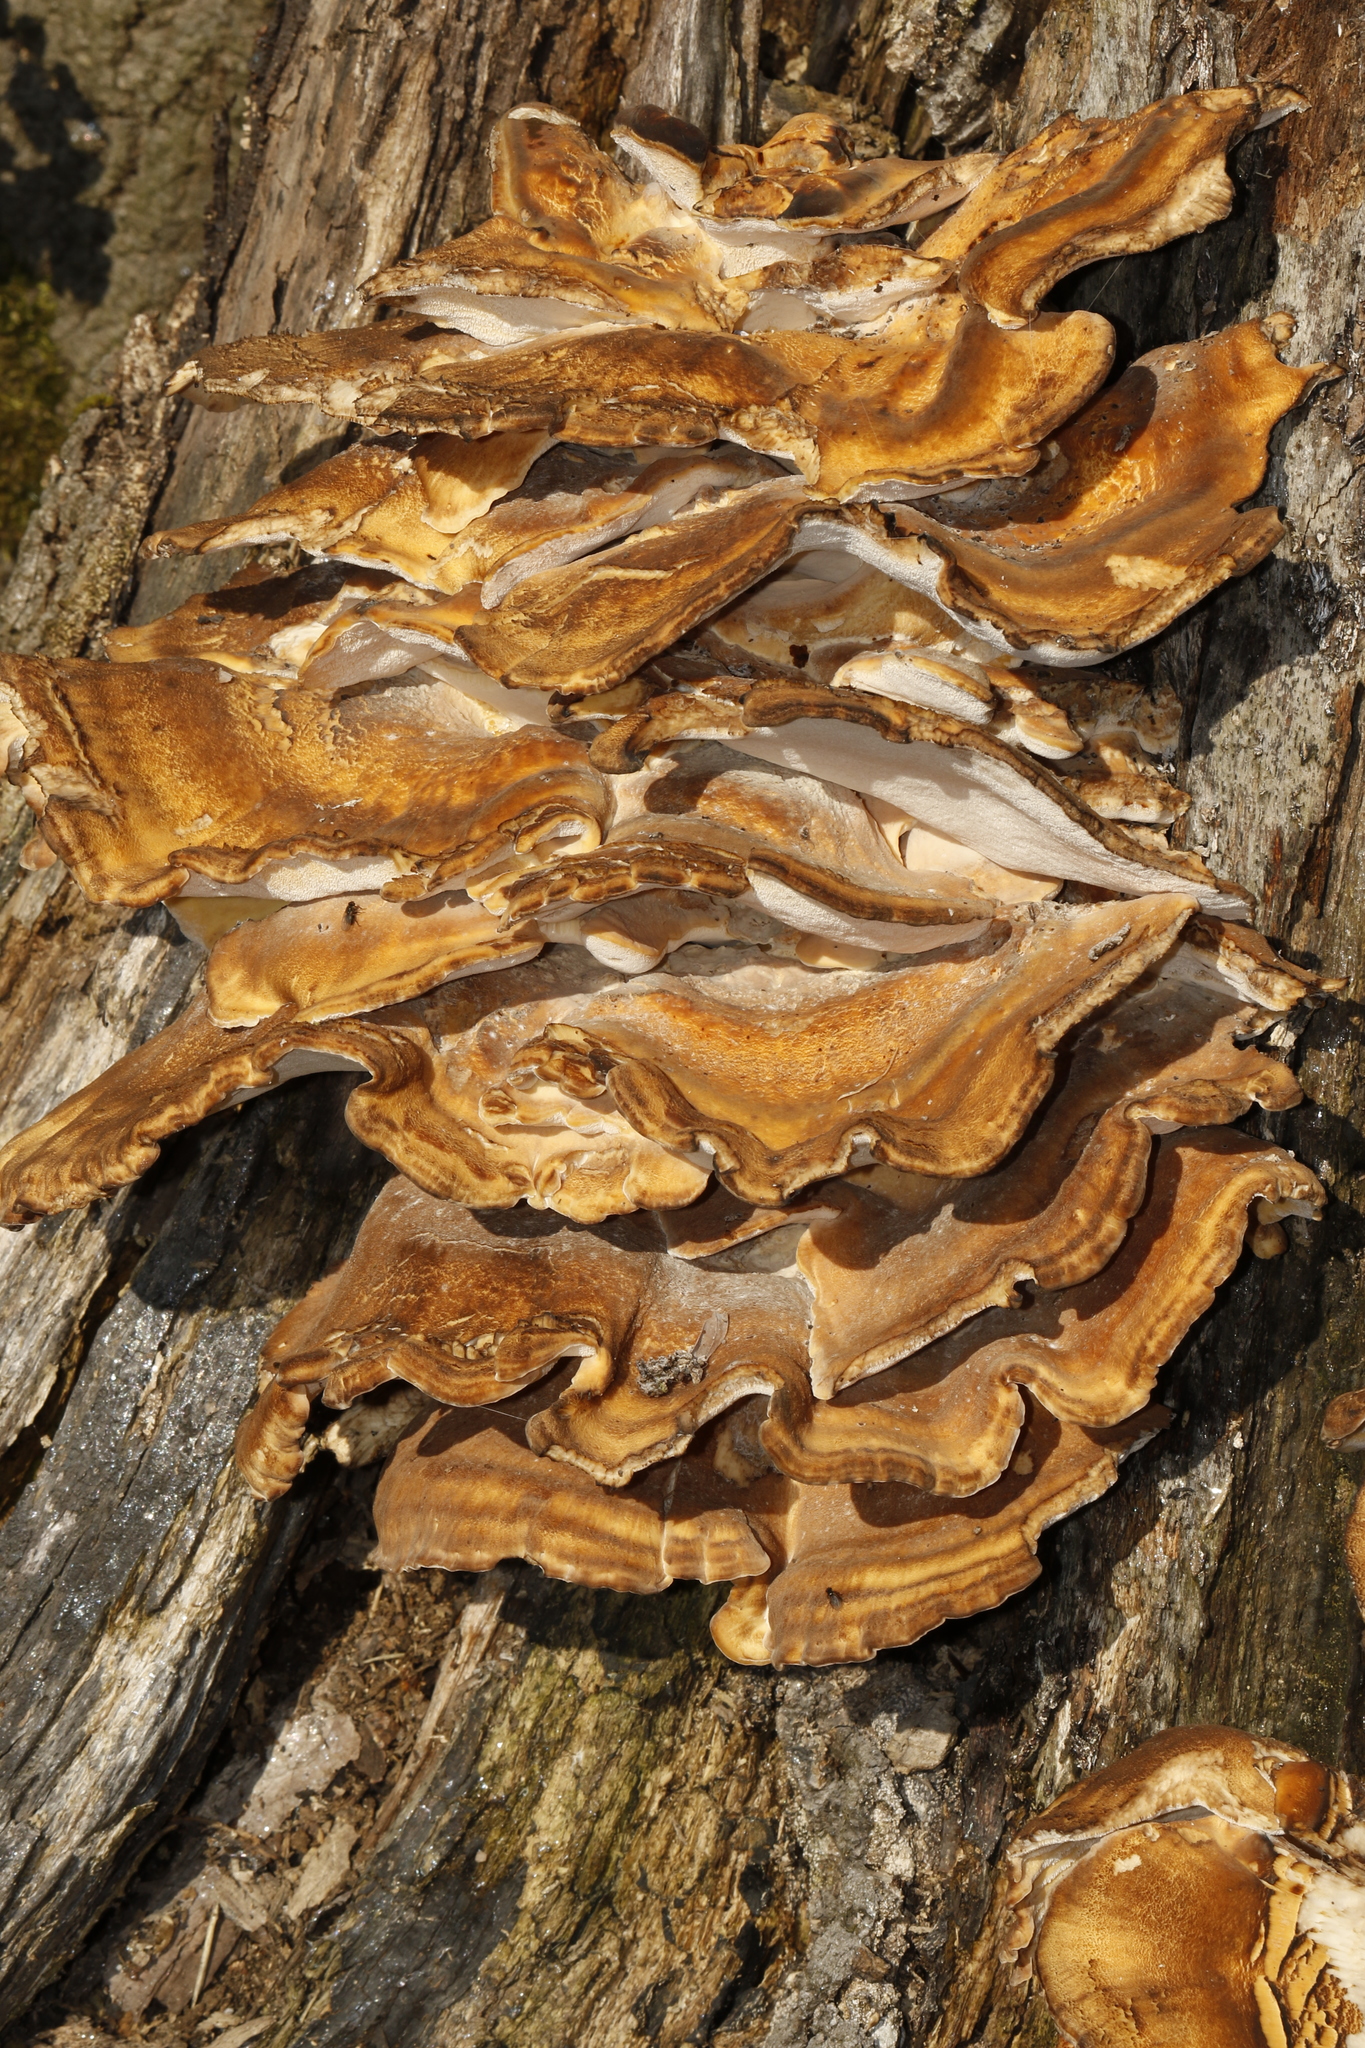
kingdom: Fungi
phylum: Basidiomycota
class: Agaricomycetes
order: Polyporales
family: Meripilaceae
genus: Meripilus
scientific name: Meripilus giganteus
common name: Giant polypore
